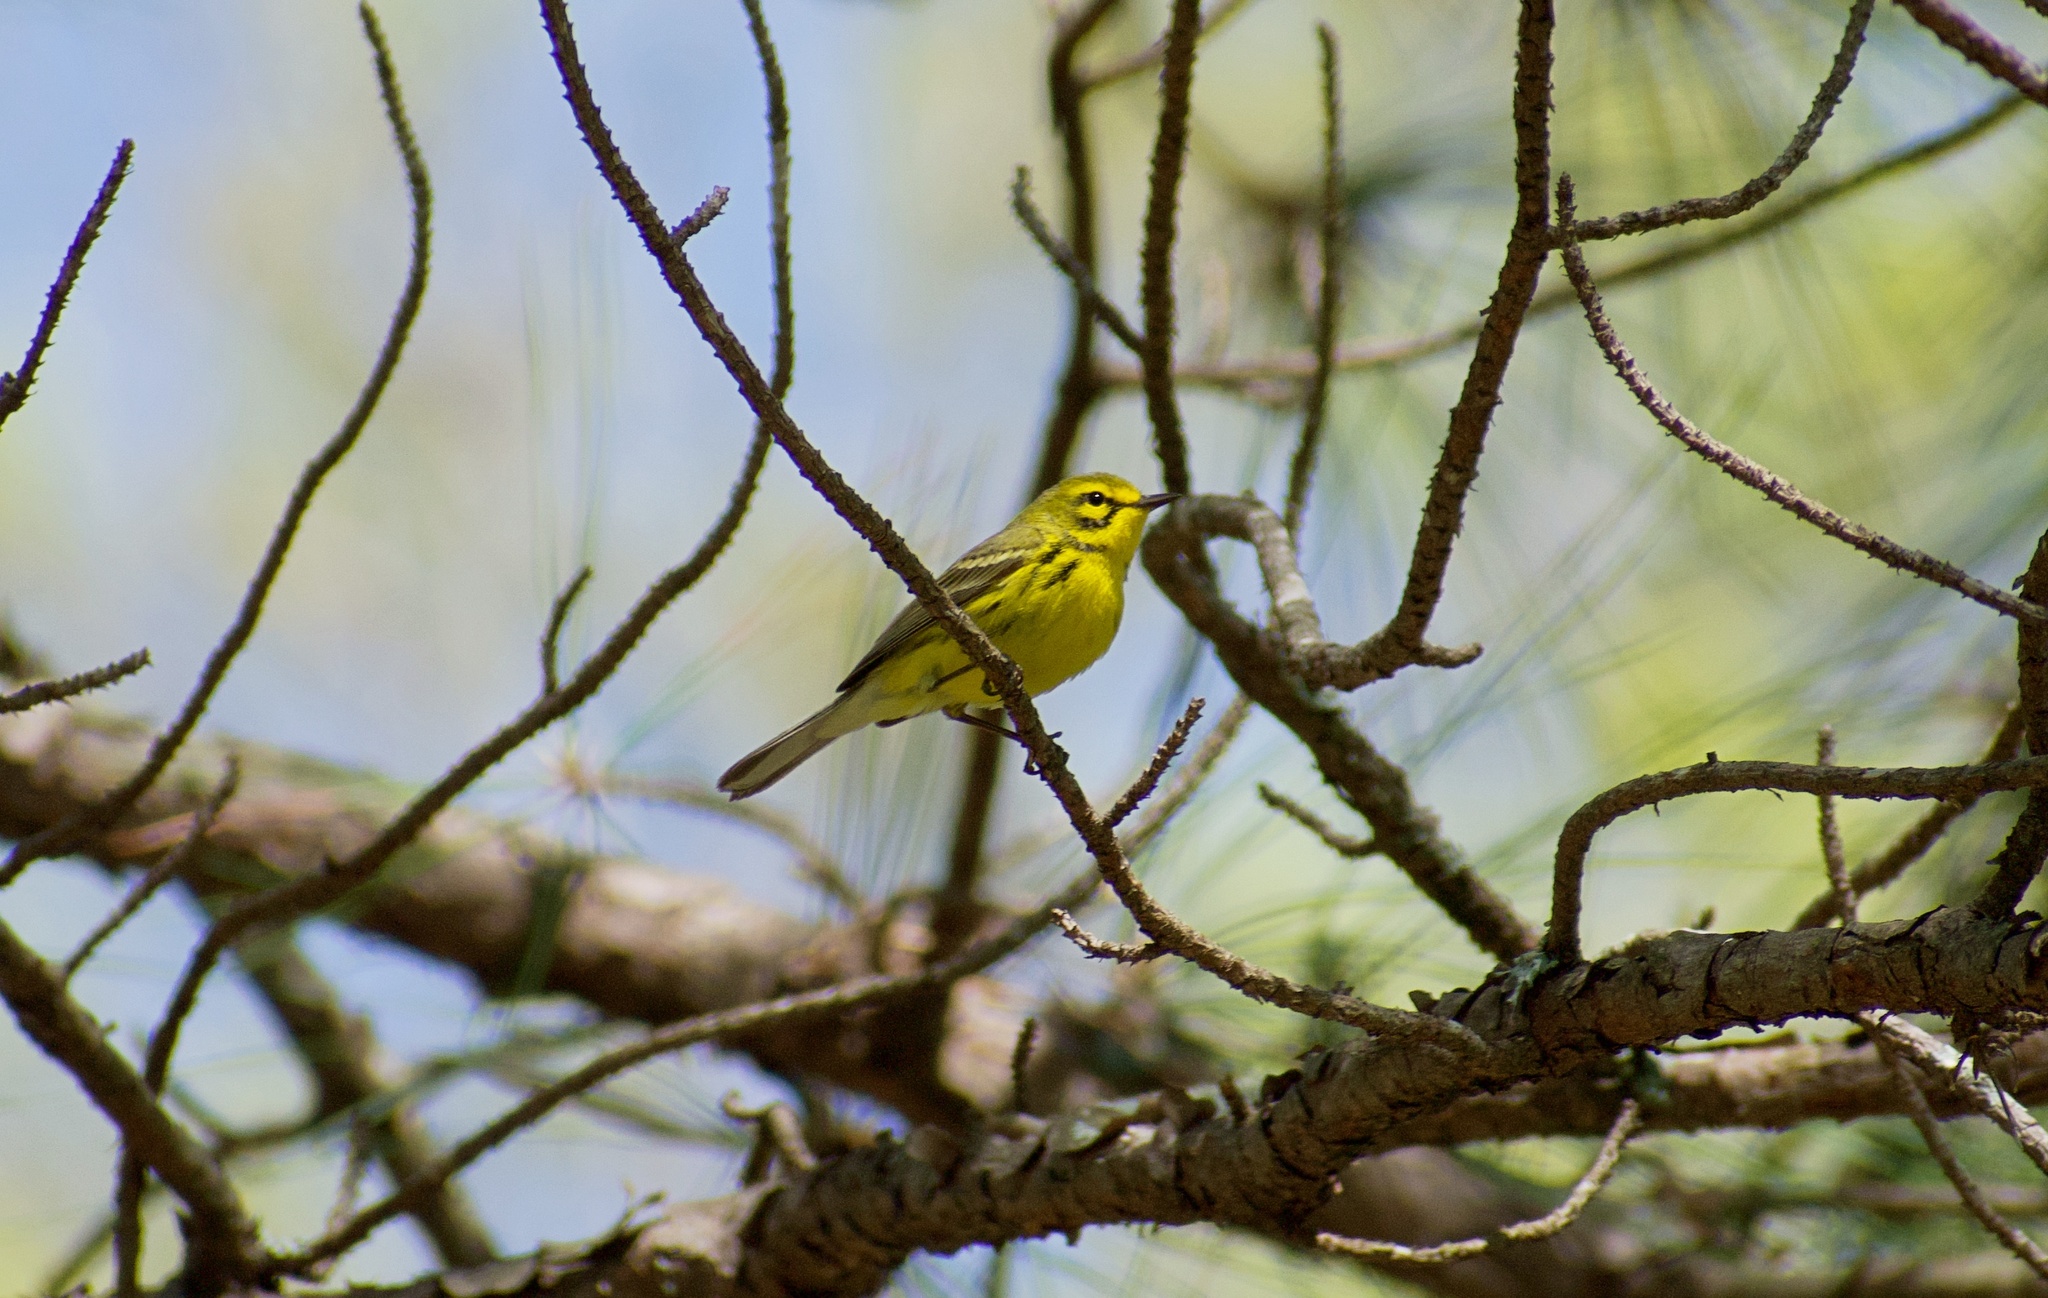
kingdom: Animalia
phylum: Chordata
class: Aves
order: Passeriformes
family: Parulidae
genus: Setophaga
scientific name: Setophaga discolor
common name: Prairie warbler
